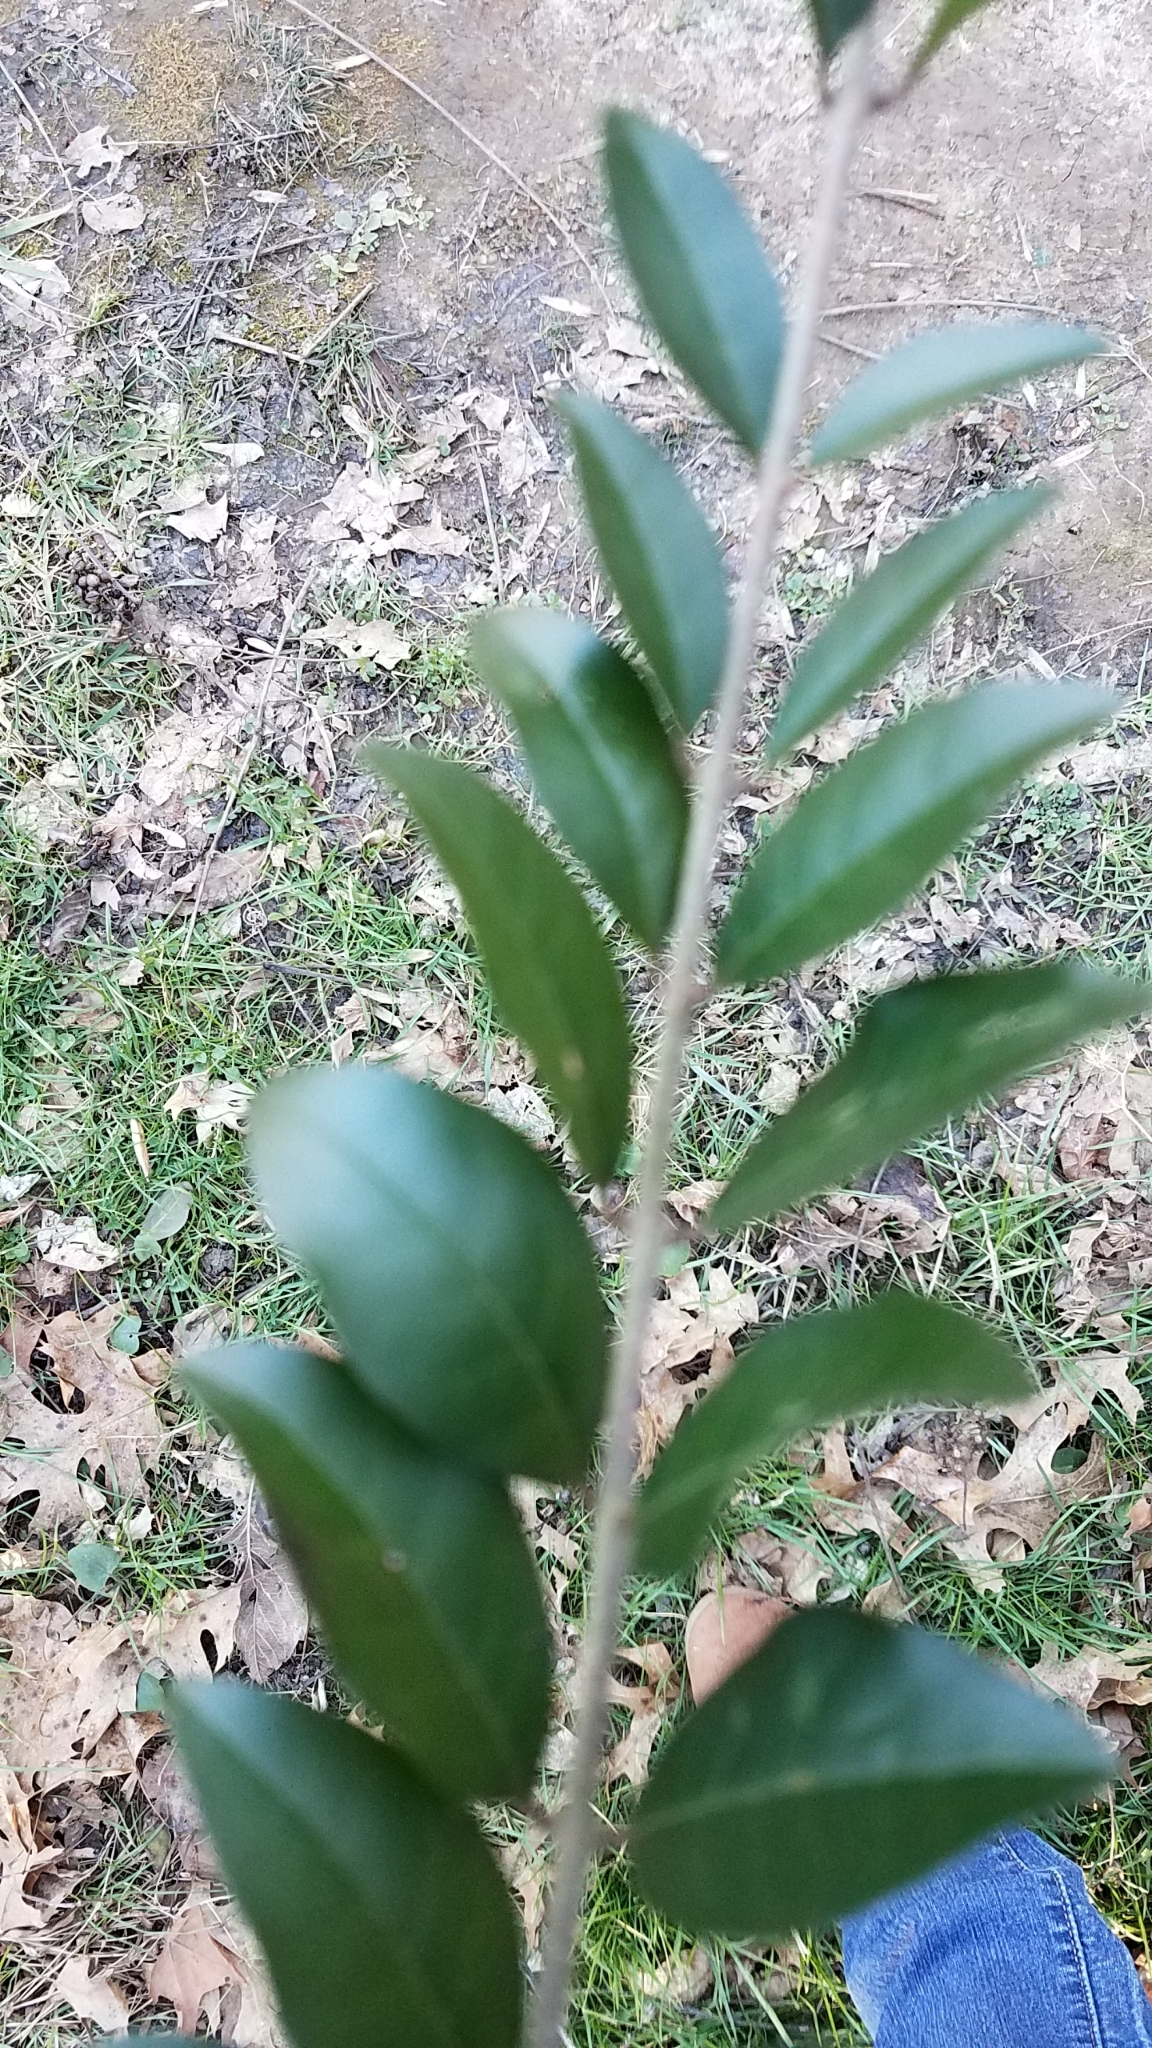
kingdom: Plantae
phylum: Tracheophyta
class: Magnoliopsida
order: Lamiales
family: Oleaceae
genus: Ligustrum
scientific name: Ligustrum sinense
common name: Chinese privet
